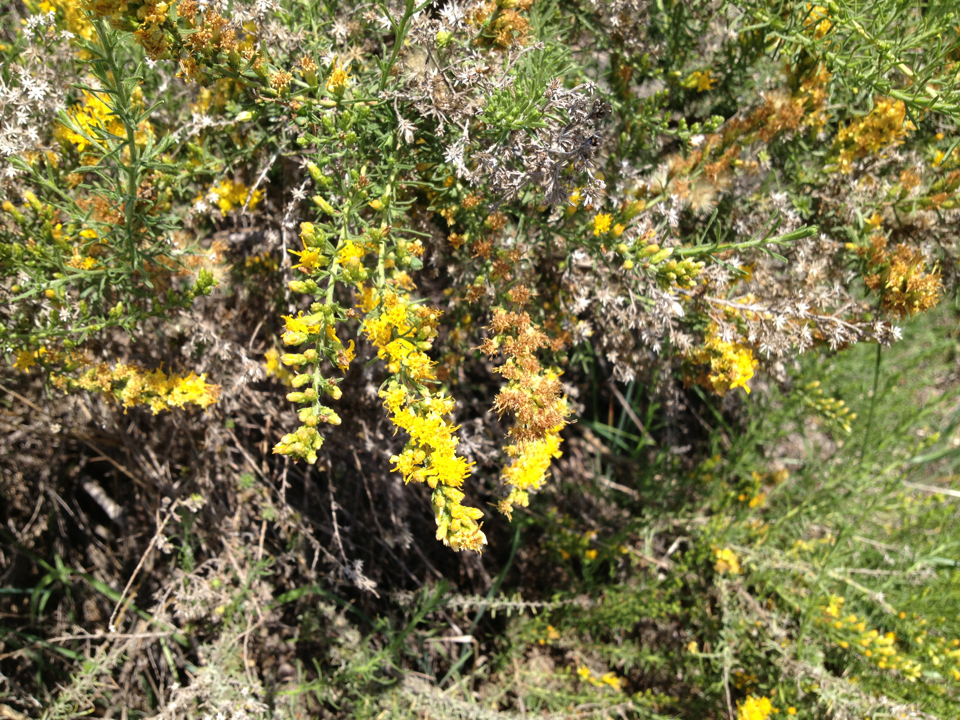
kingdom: Plantae
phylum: Tracheophyta
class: Magnoliopsida
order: Asterales
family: Asteraceae
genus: Ericameria
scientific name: Ericameria palmeri
